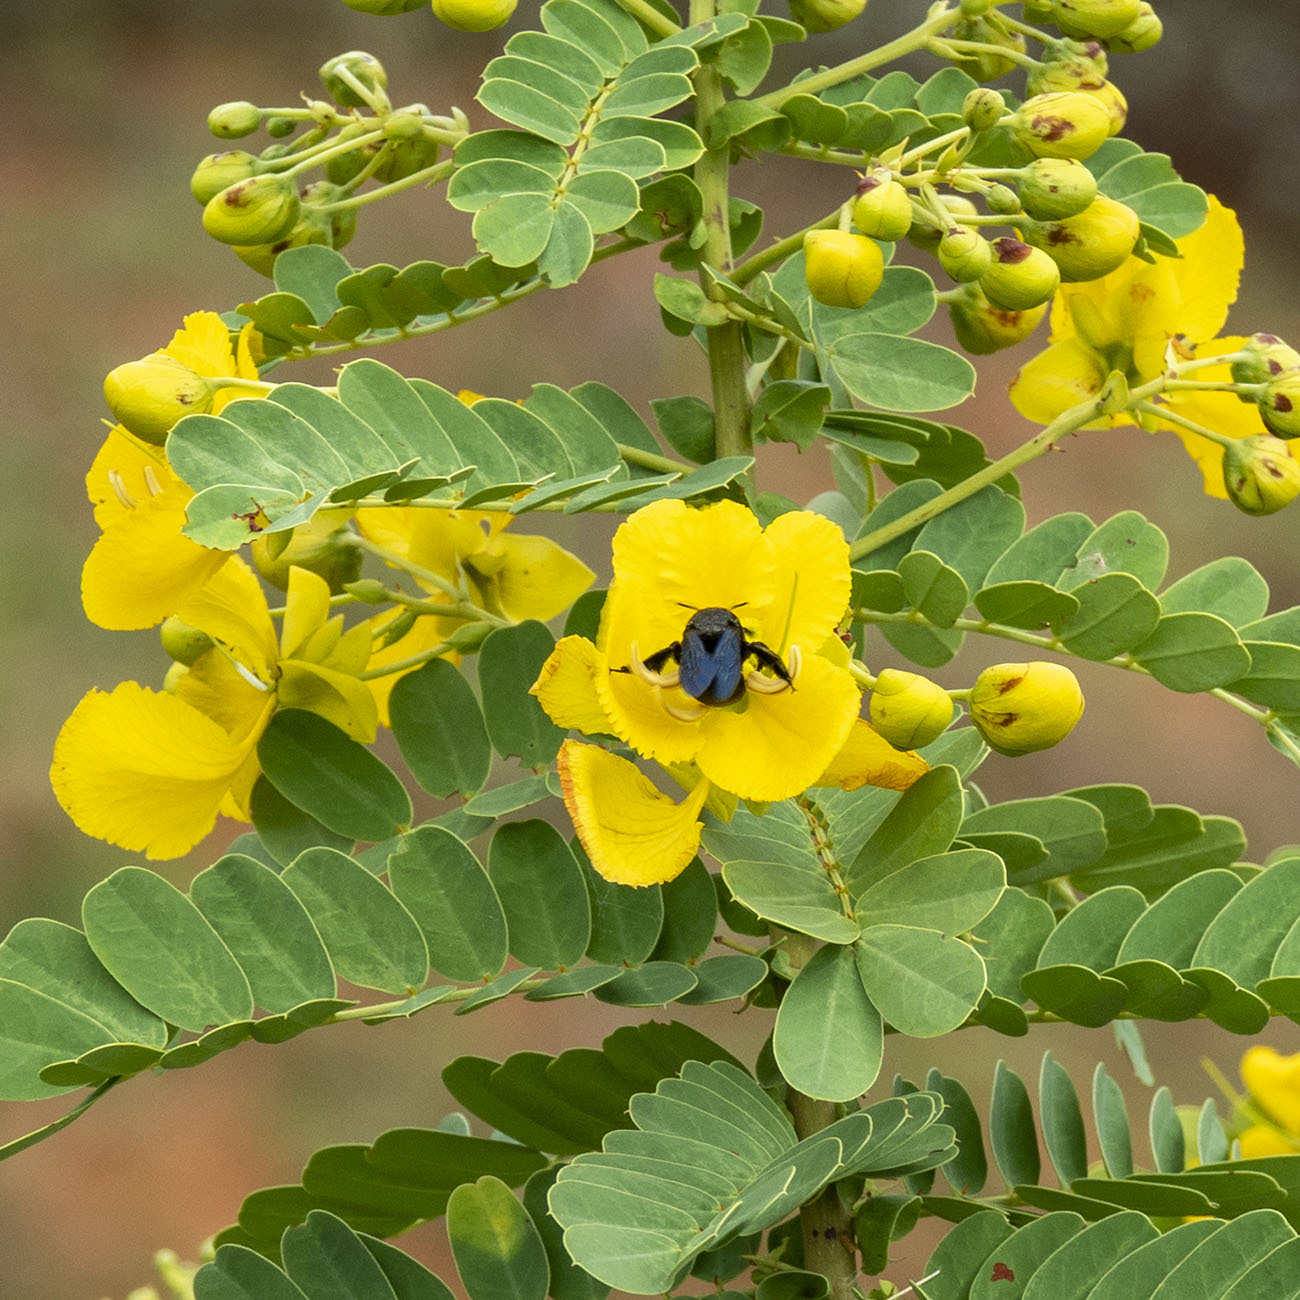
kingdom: Animalia
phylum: Arthropoda
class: Insecta
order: Hymenoptera
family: Apidae
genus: Amegilla
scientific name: Amegilla violacea
